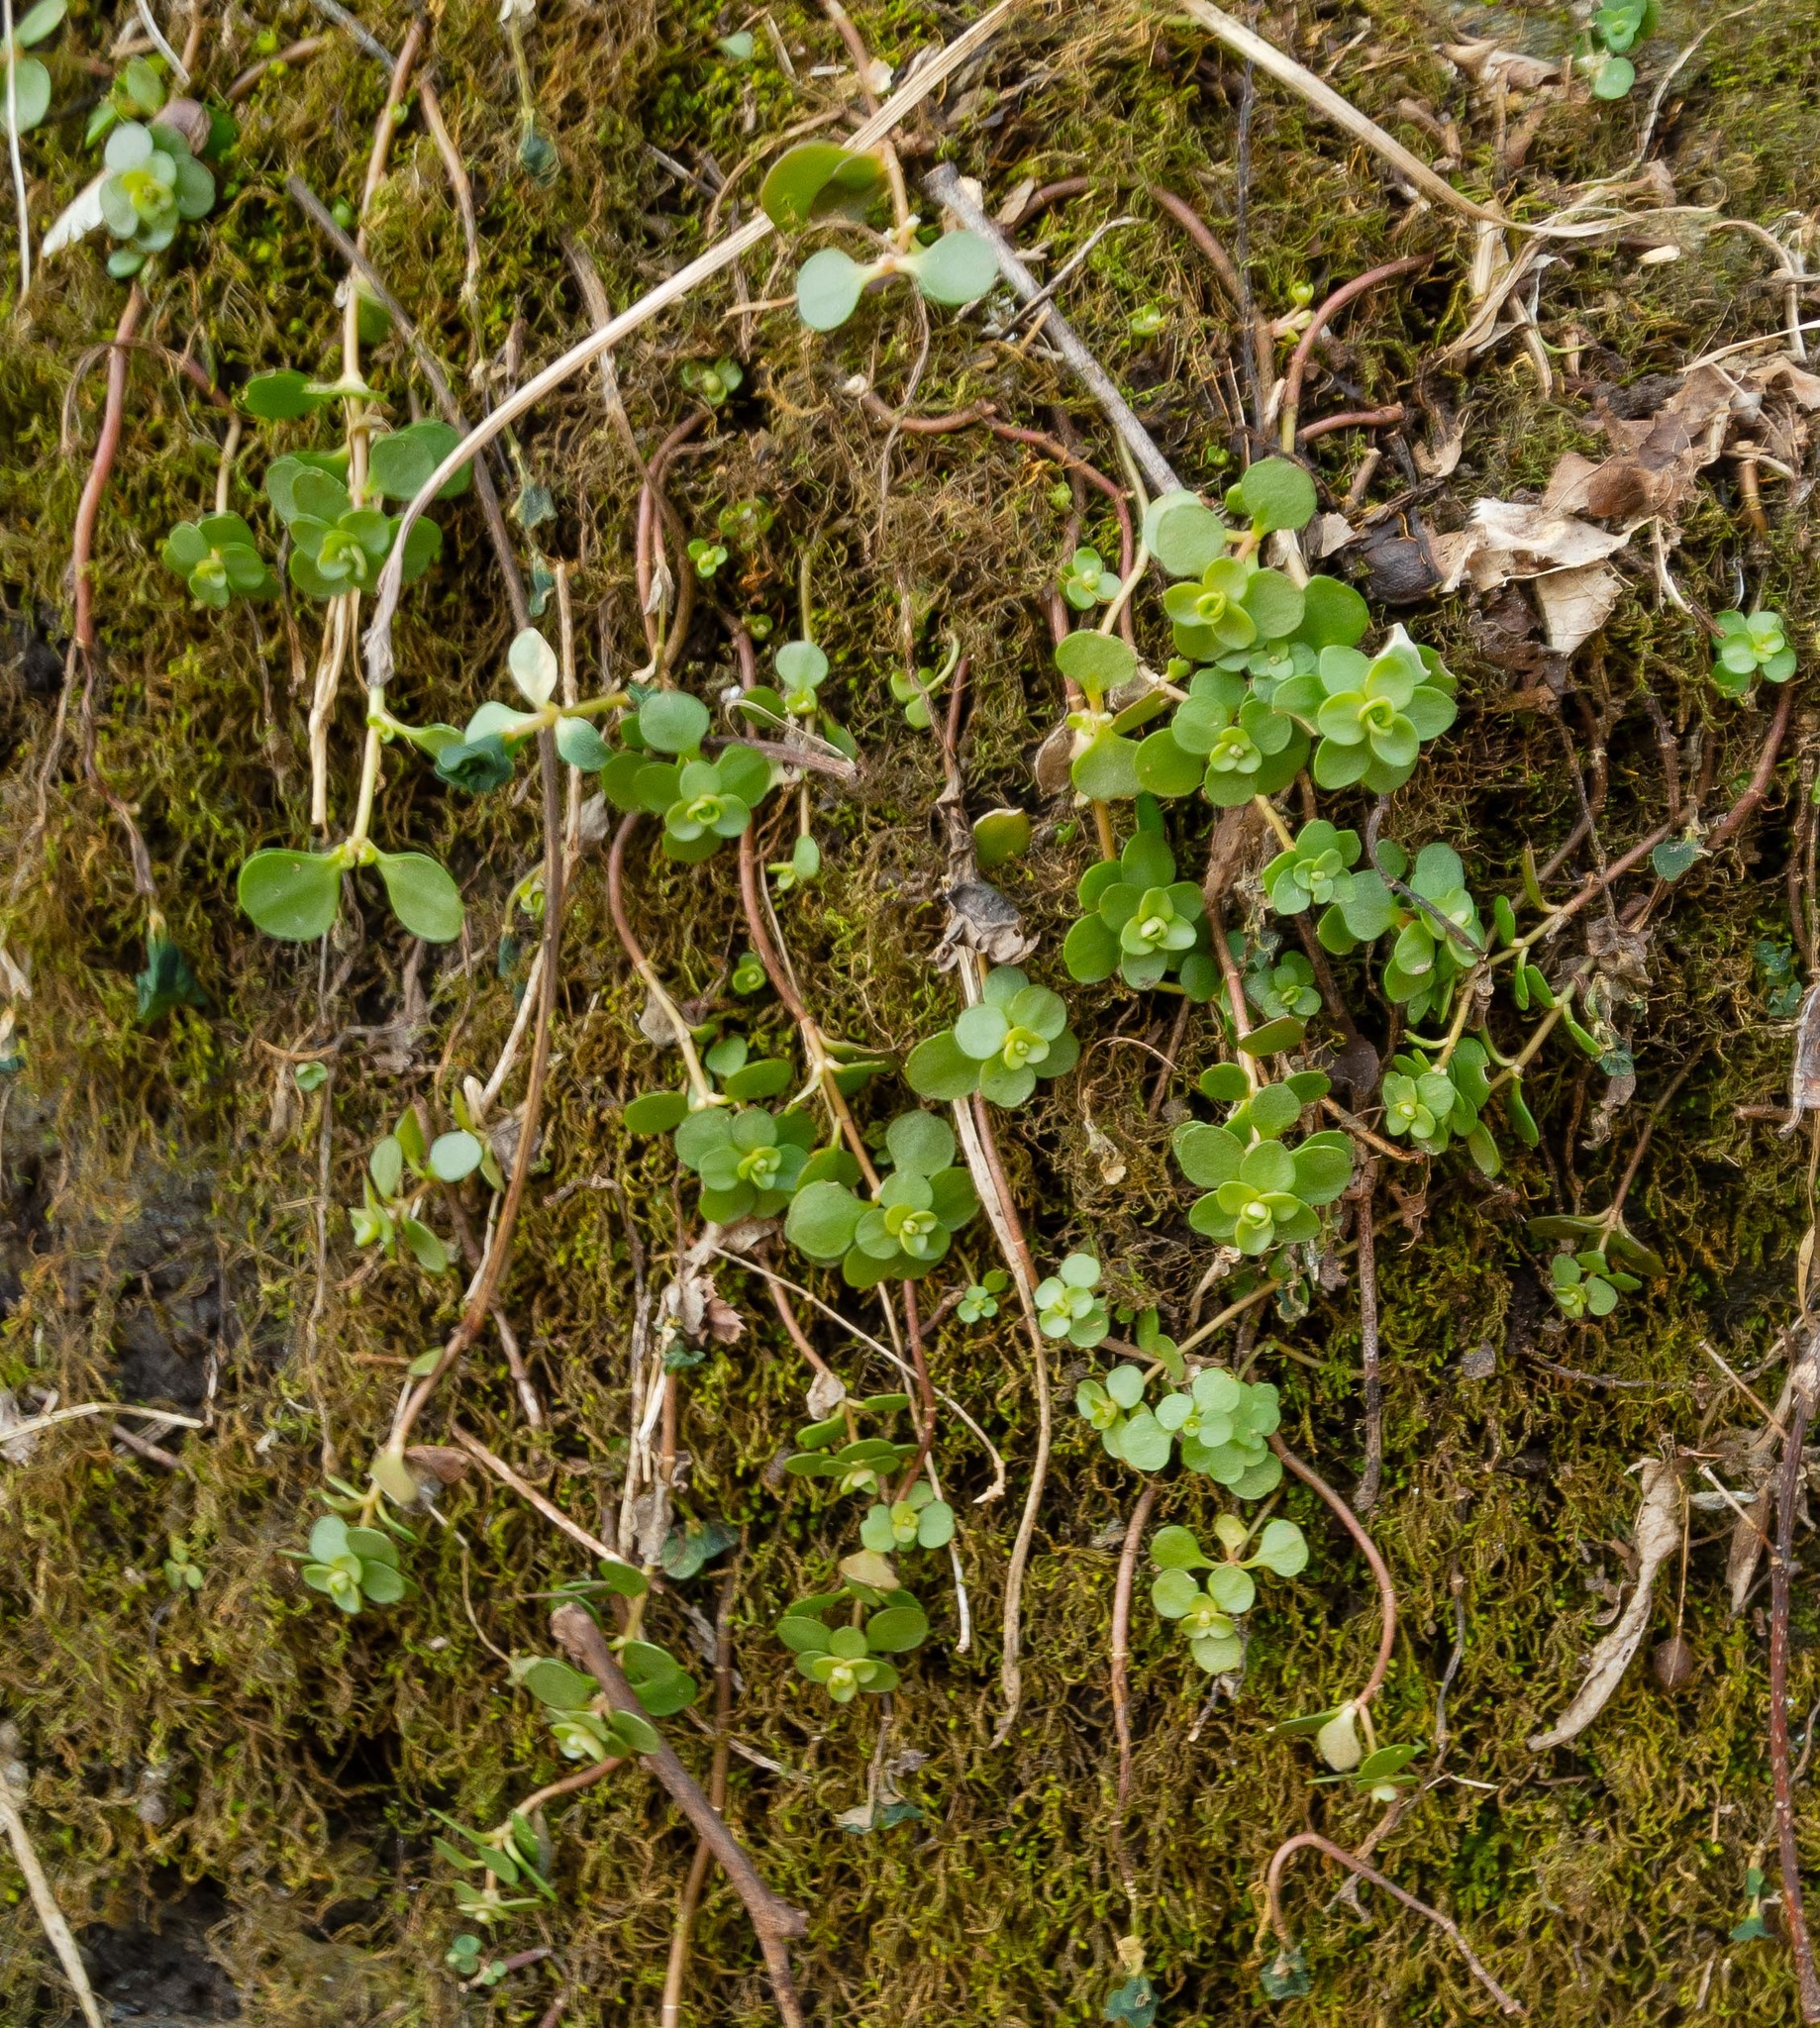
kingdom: Plantae
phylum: Tracheophyta
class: Magnoliopsida
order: Saxifragales
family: Crassulaceae
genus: Sedum
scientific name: Sedum ternatum
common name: Wild stonecrop
